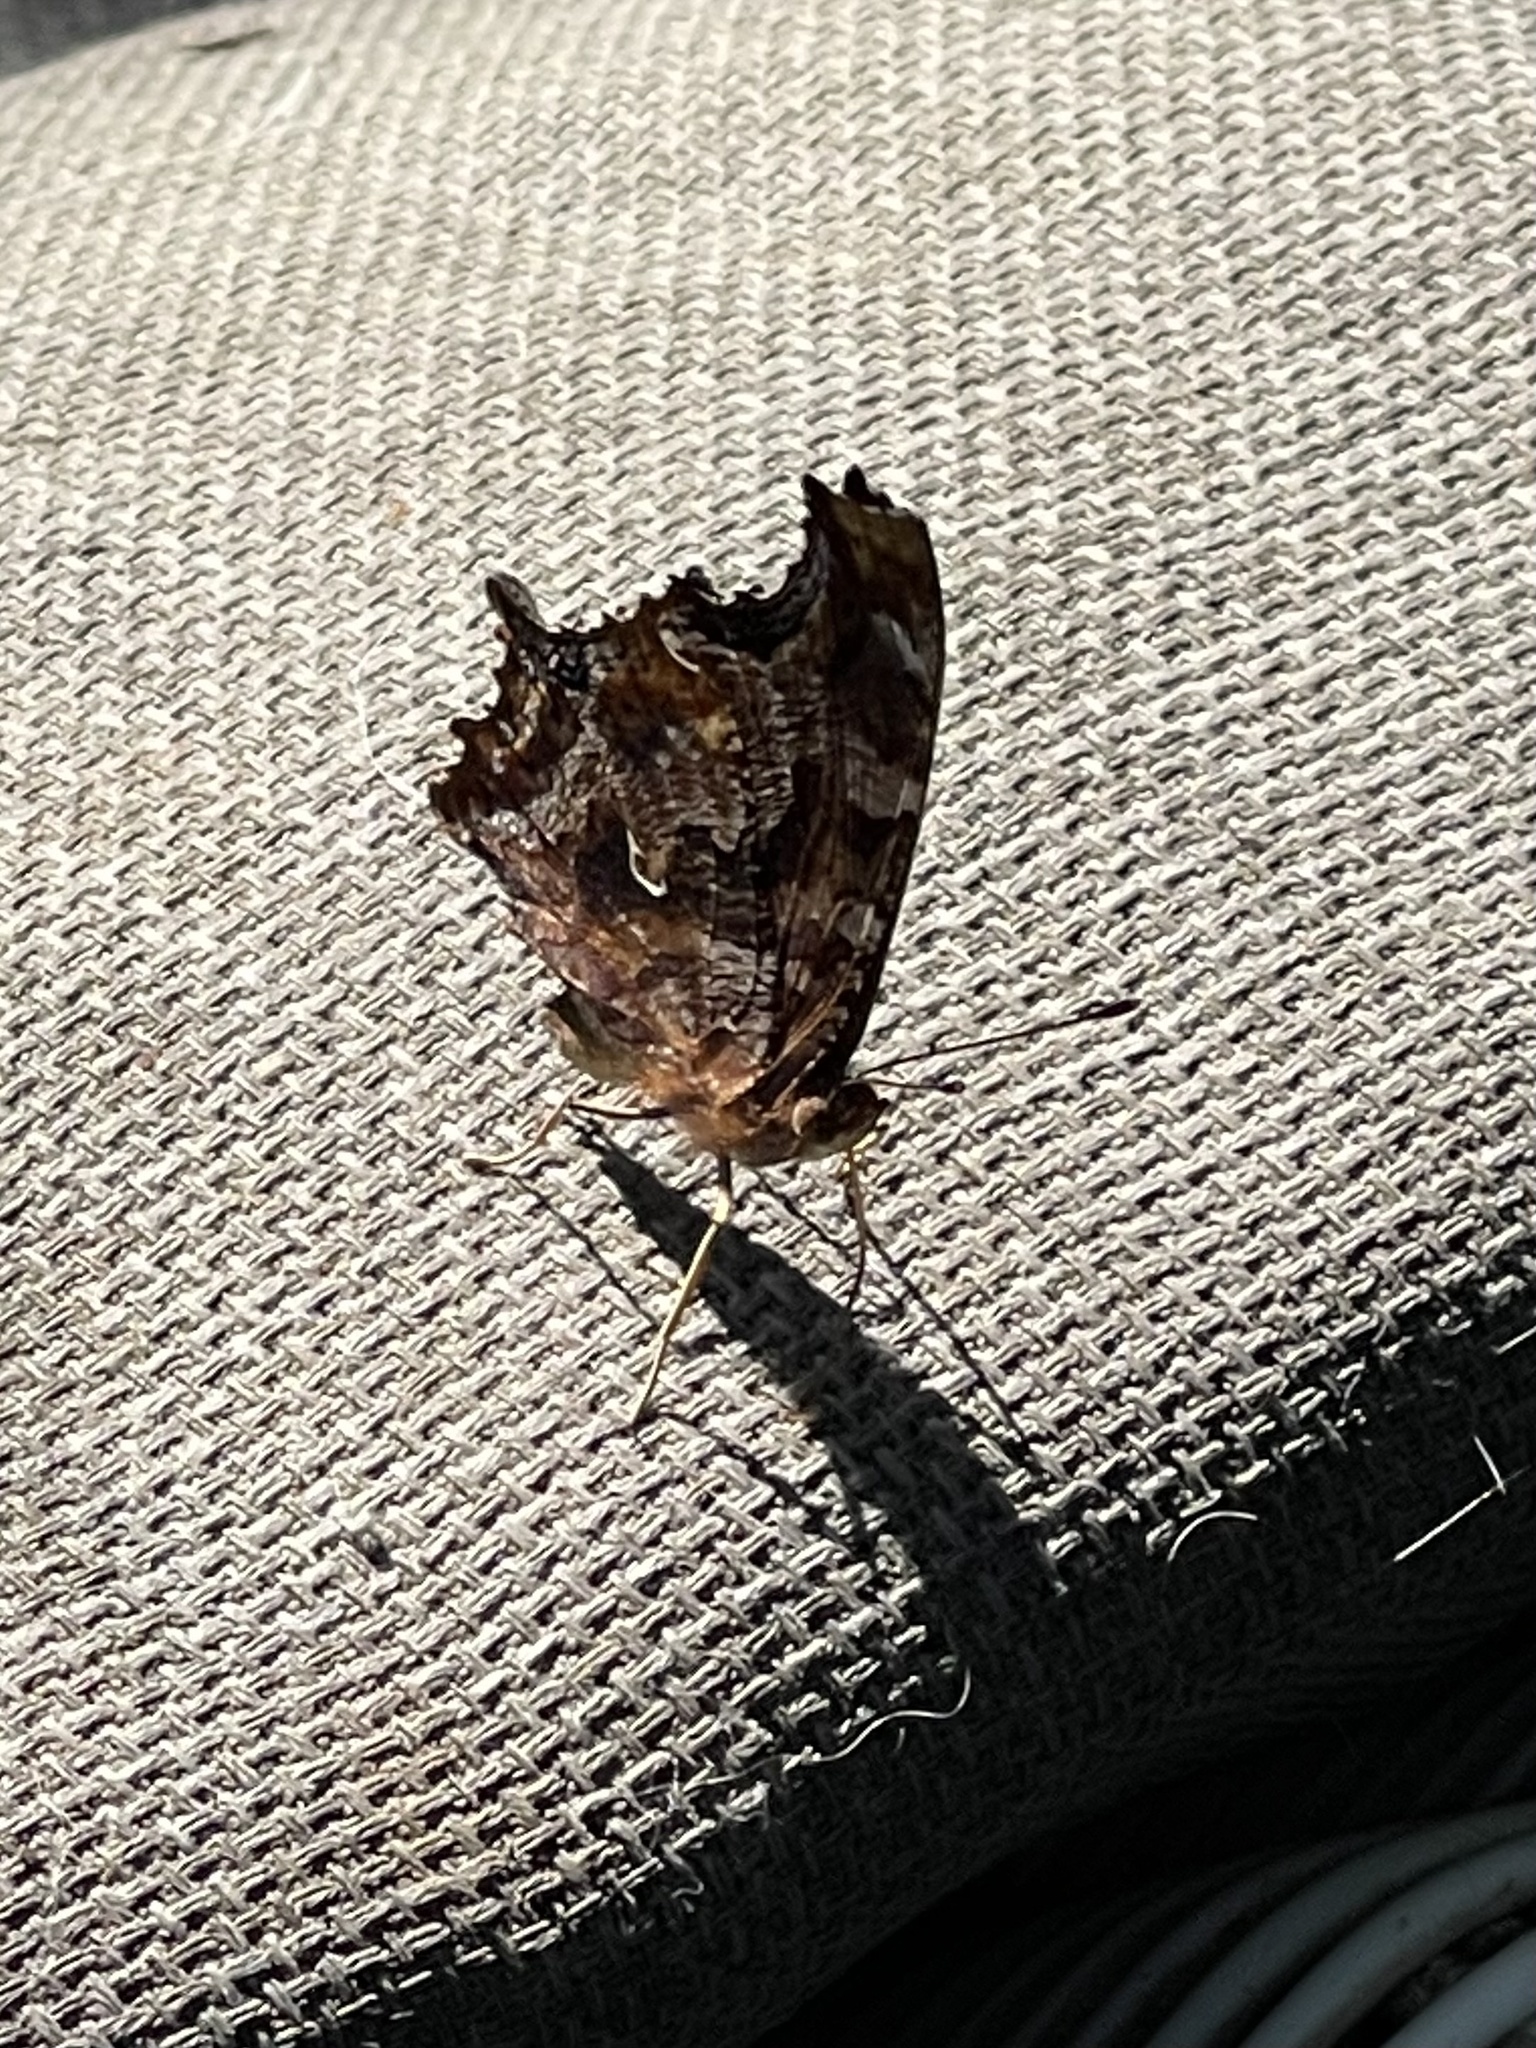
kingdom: Animalia
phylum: Arthropoda
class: Insecta
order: Lepidoptera
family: Nymphalidae
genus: Polygonia
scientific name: Polygonia comma
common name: Eastern comma
